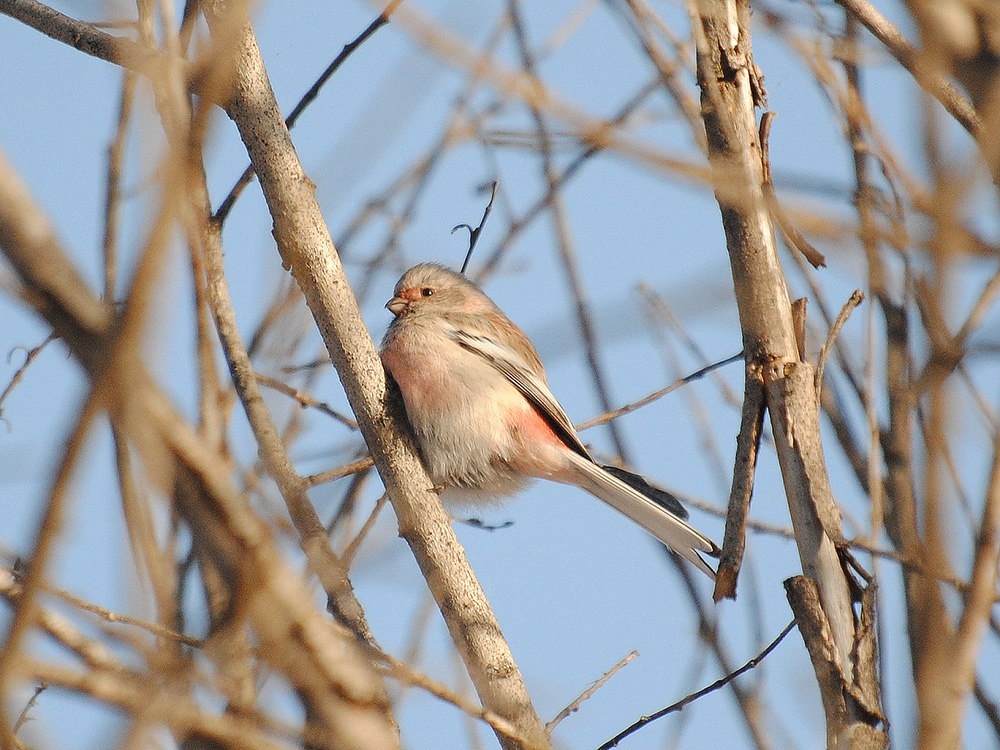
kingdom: Animalia
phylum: Chordata
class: Aves
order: Passeriformes
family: Fringillidae
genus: Carpodacus
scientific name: Carpodacus sibiricus
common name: Long-tailed rosefinch
